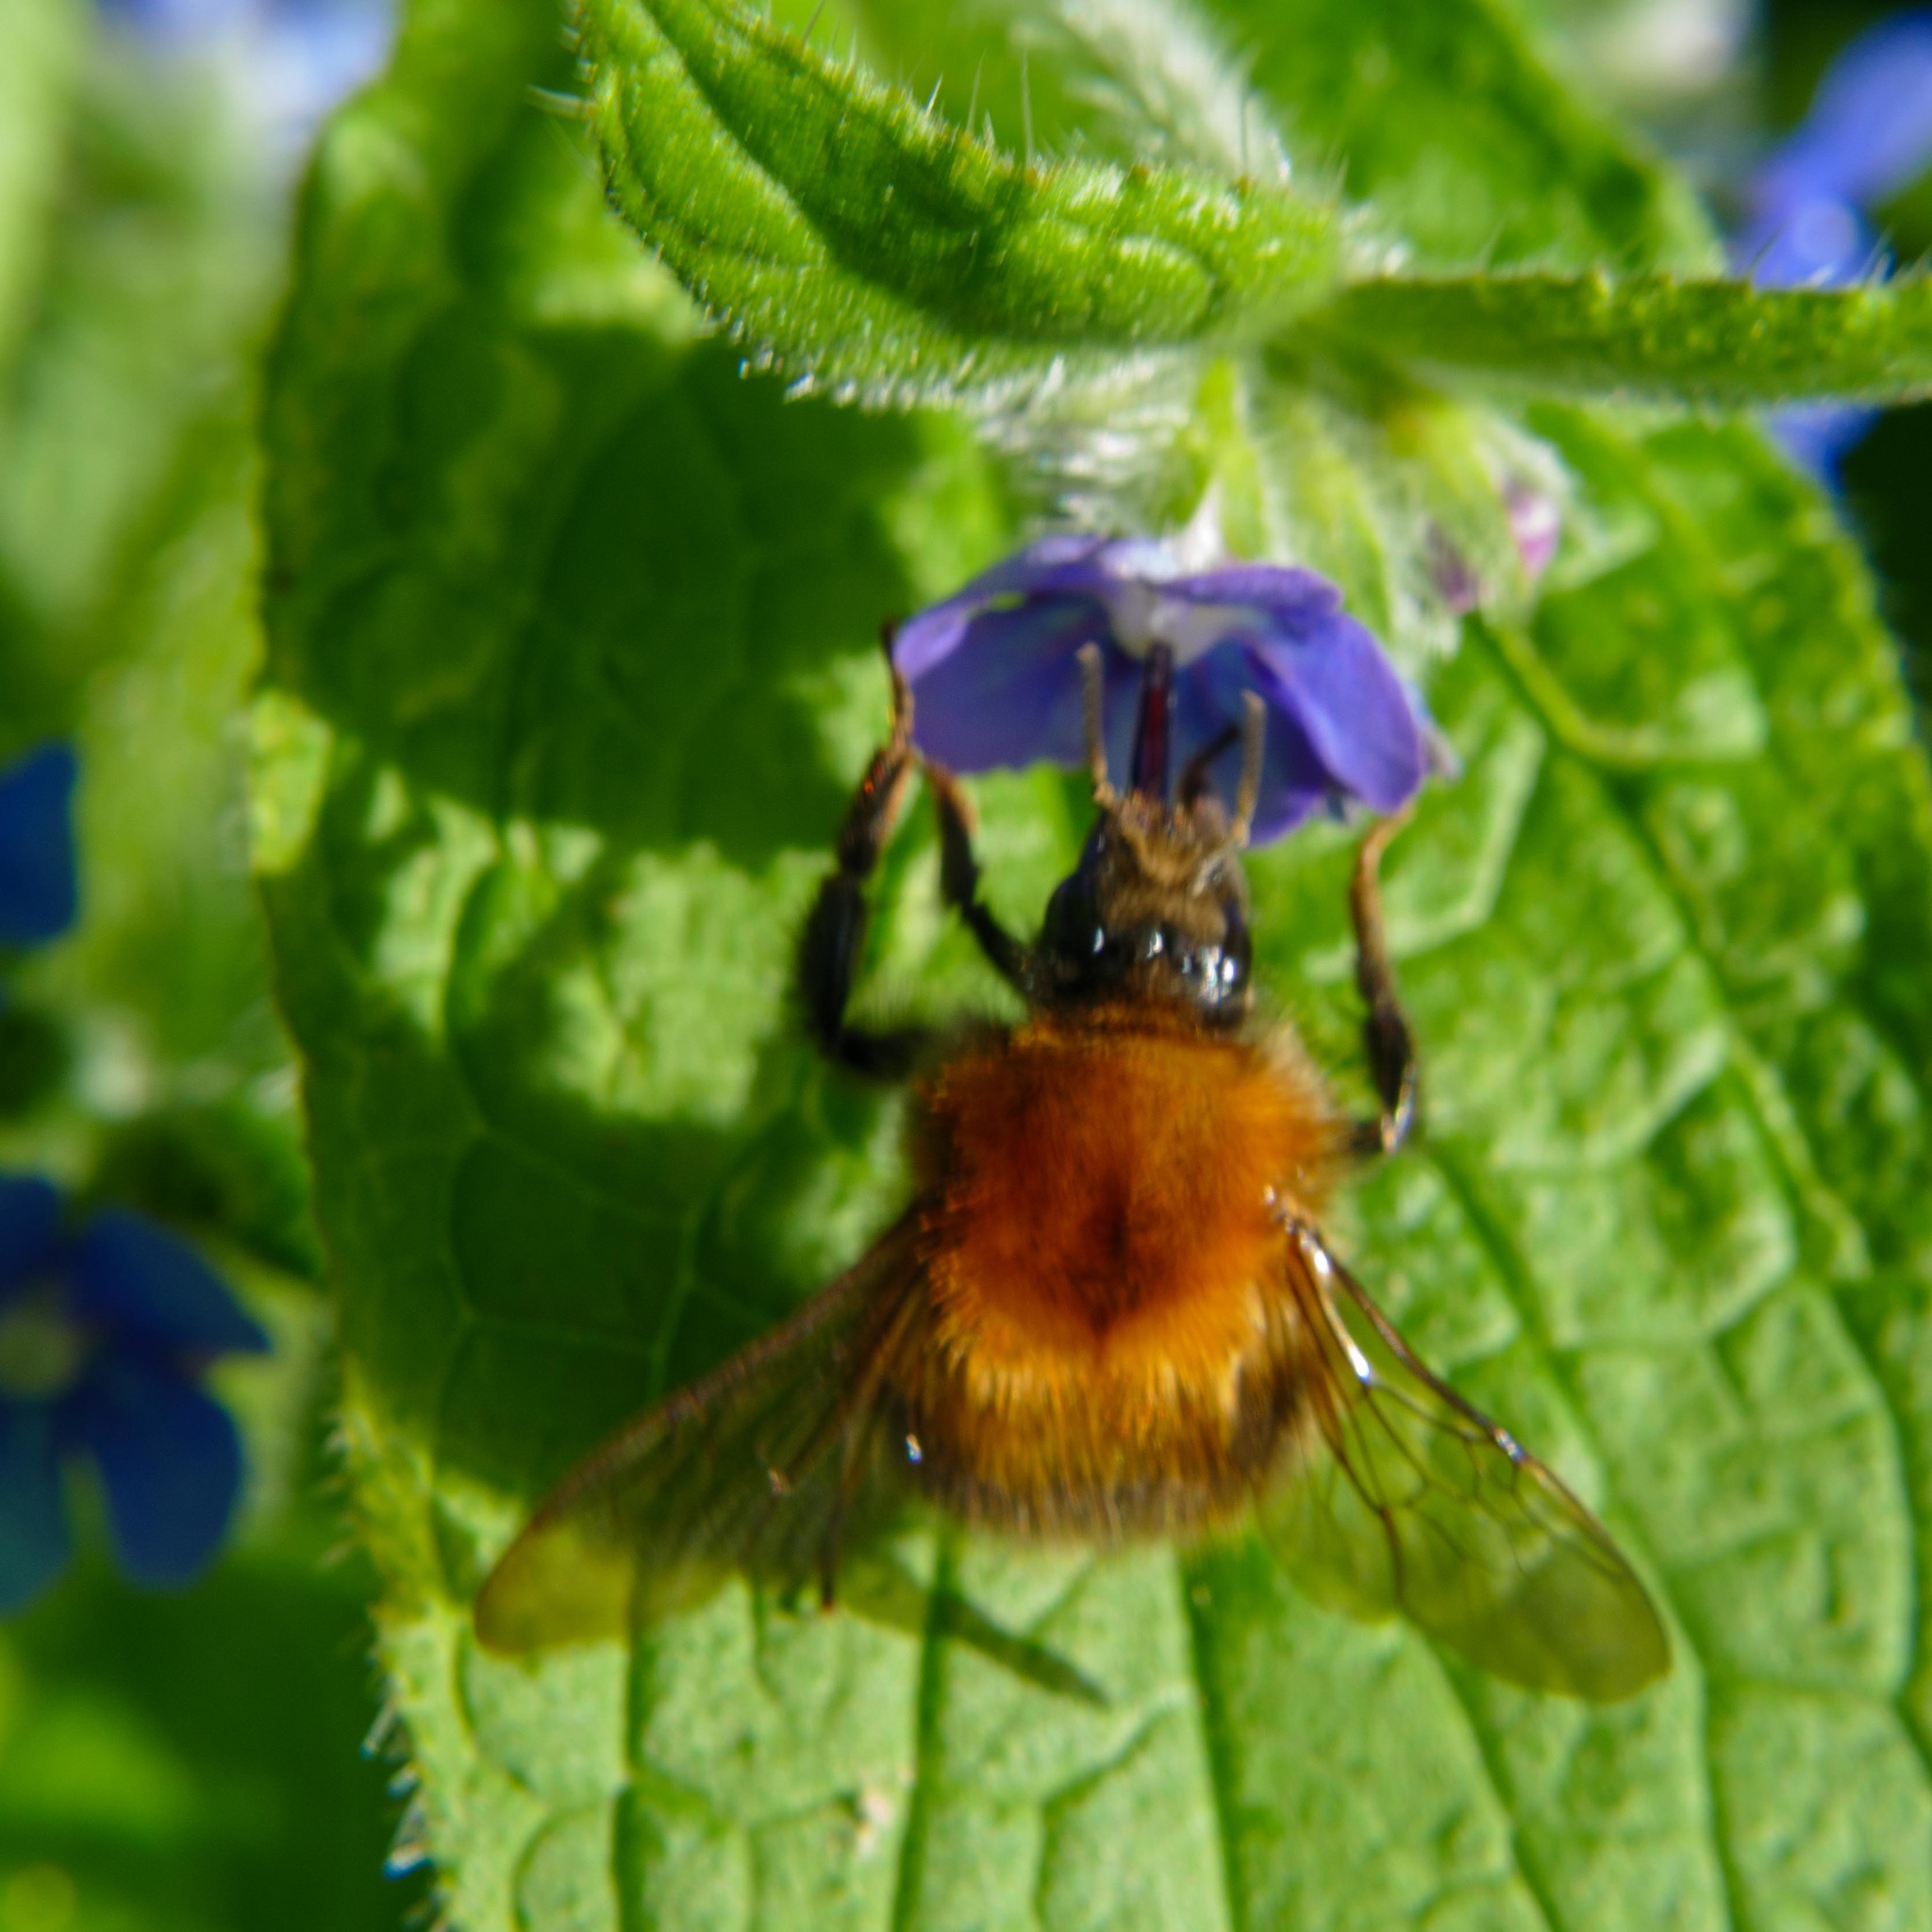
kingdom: Animalia
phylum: Arthropoda
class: Insecta
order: Hymenoptera
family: Apidae
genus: Bombus
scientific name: Bombus pascuorum
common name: Common carder bee
